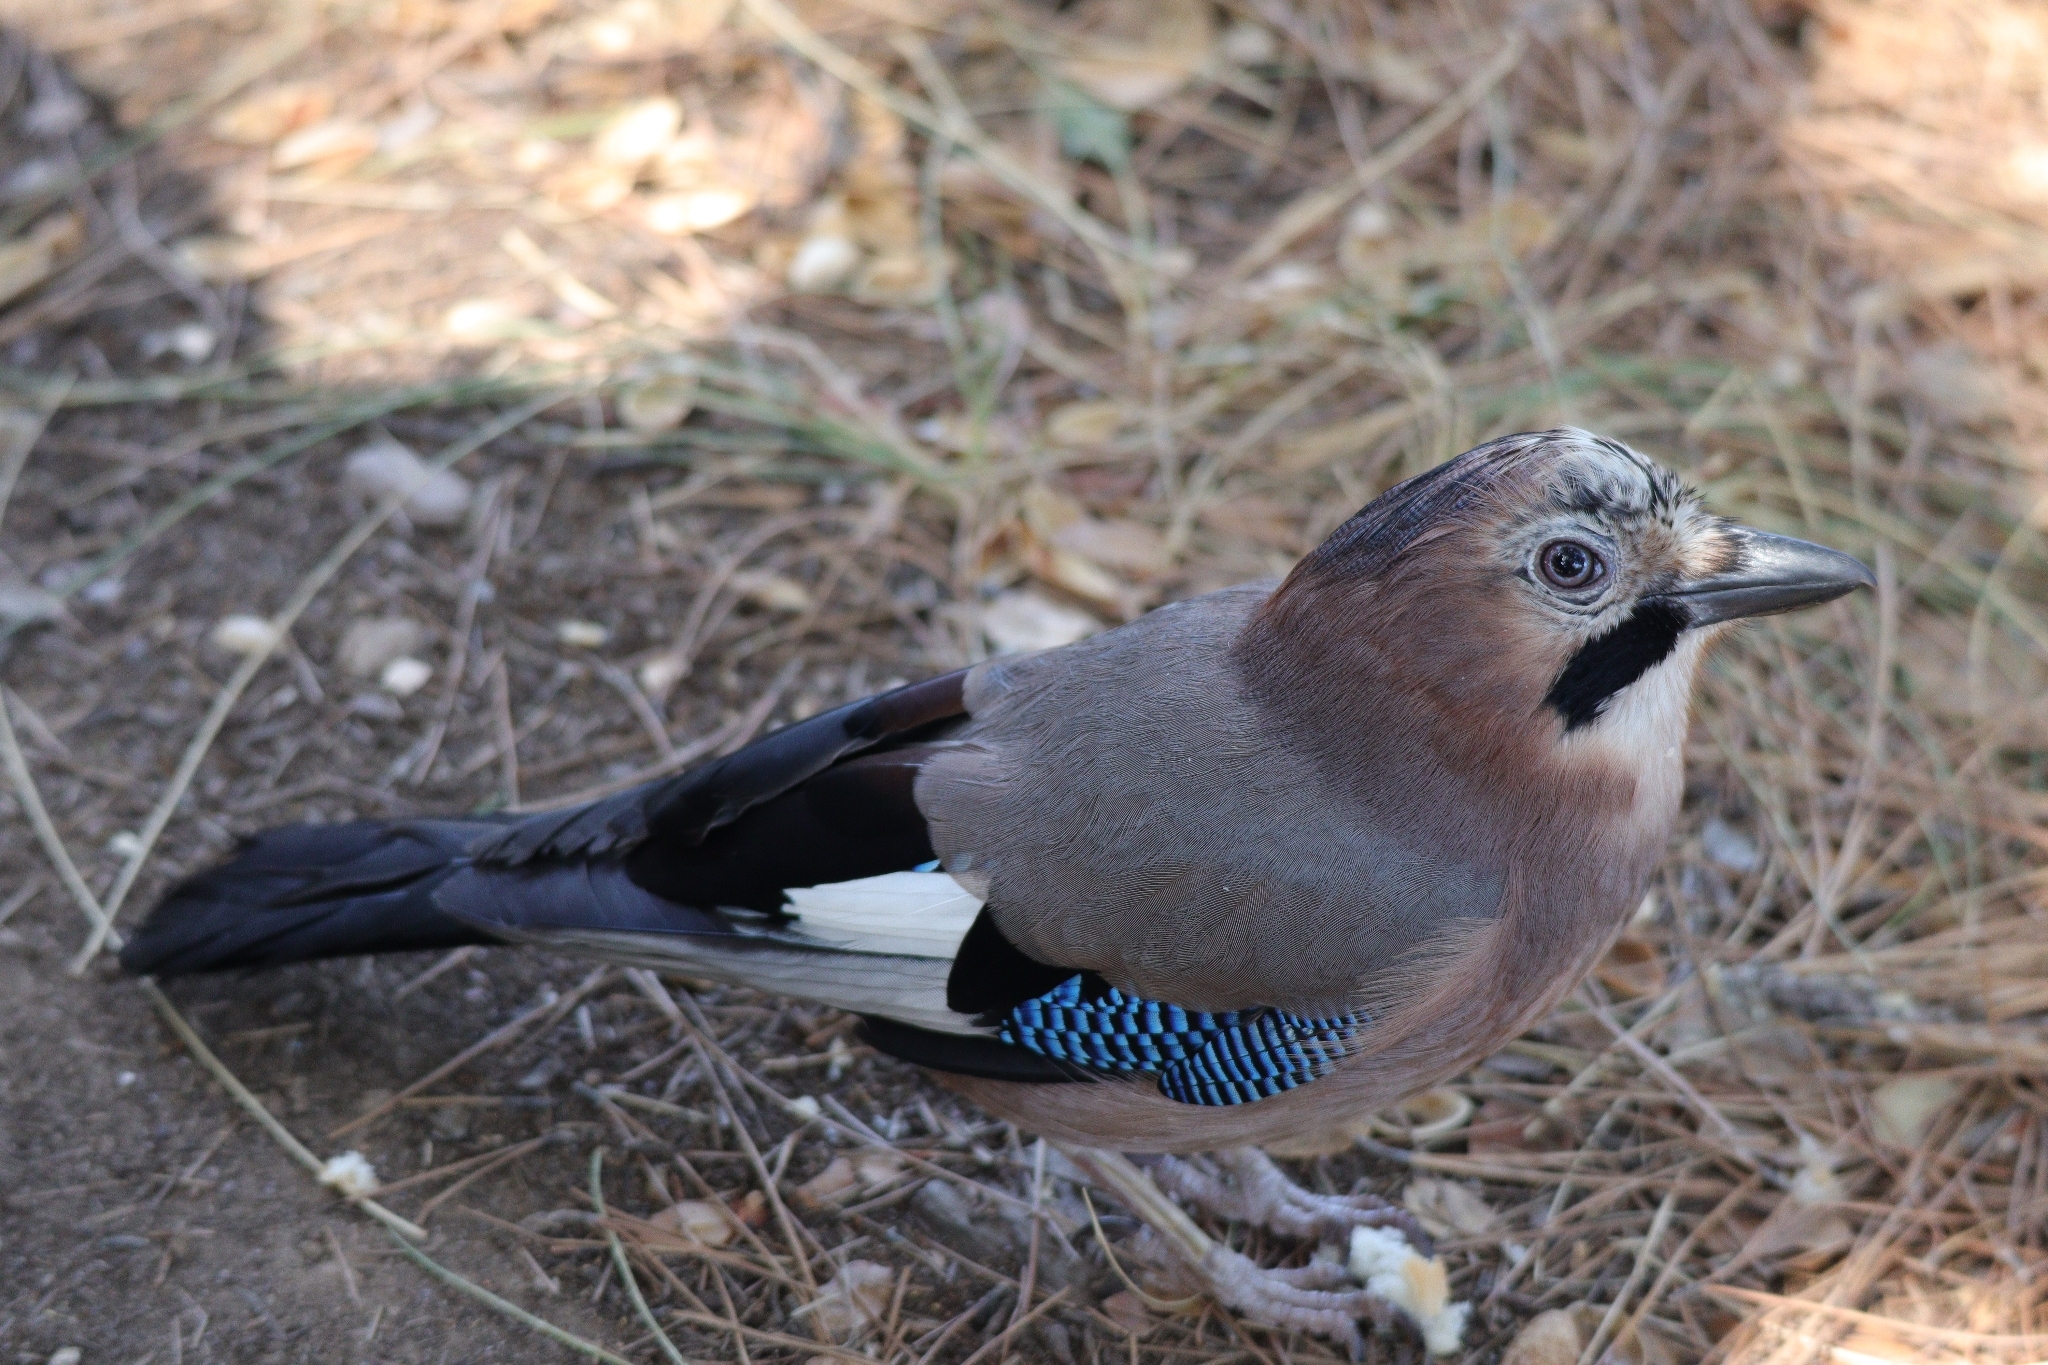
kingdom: Animalia
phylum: Chordata
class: Aves
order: Passeriformes
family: Corvidae
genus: Garrulus
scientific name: Garrulus glandarius
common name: Eurasian jay
